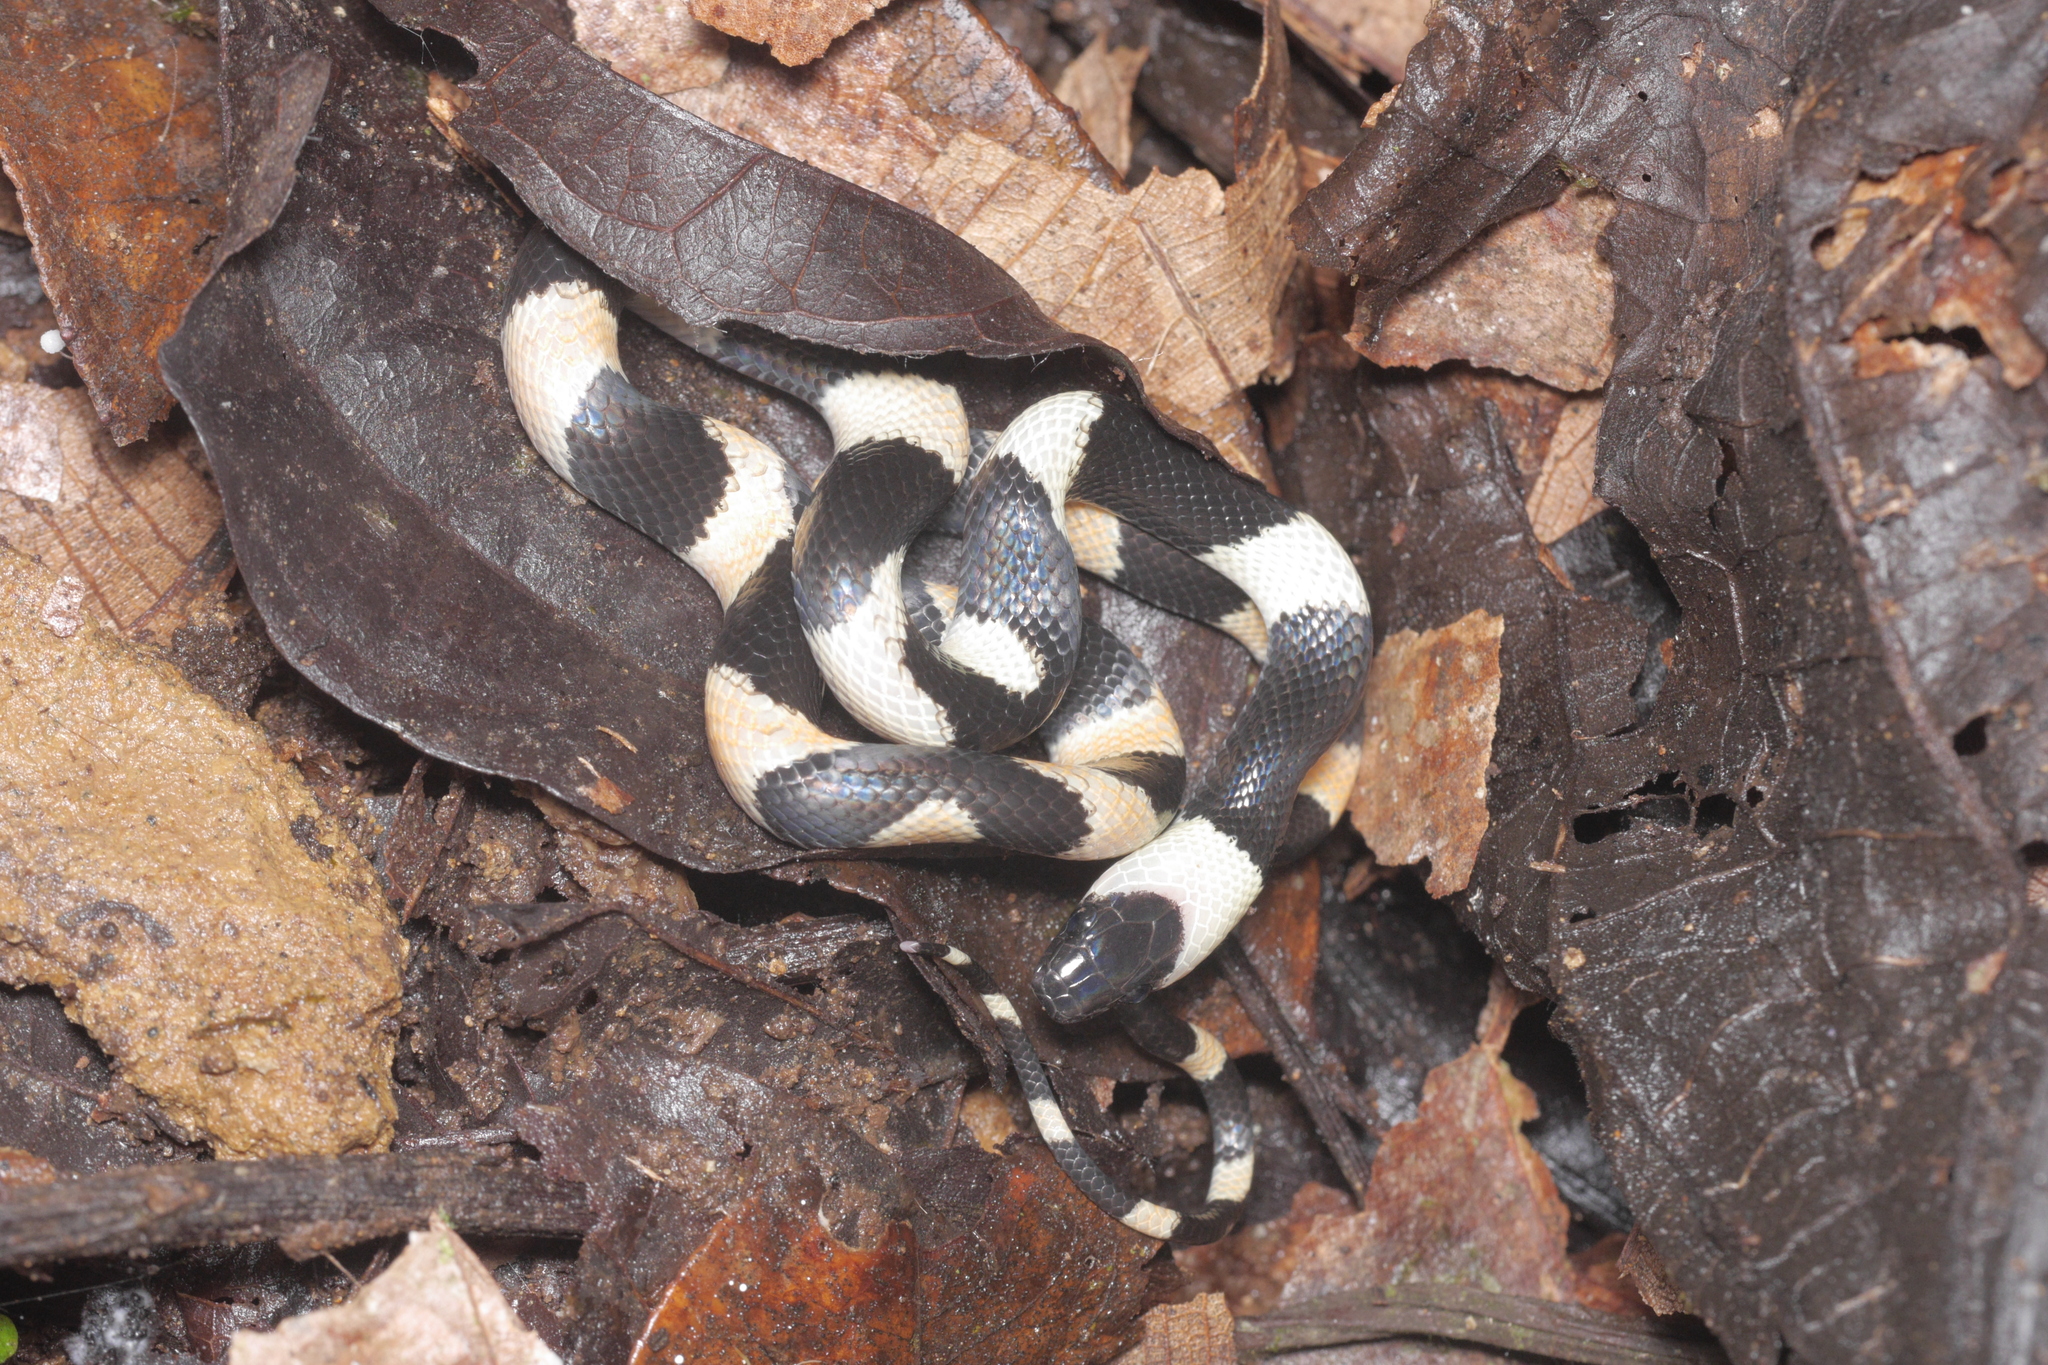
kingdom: Animalia
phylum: Chordata
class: Squamata
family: Colubridae
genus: Oxyrhopus
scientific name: Oxyrhopus petolarius
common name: Forest flame snake
